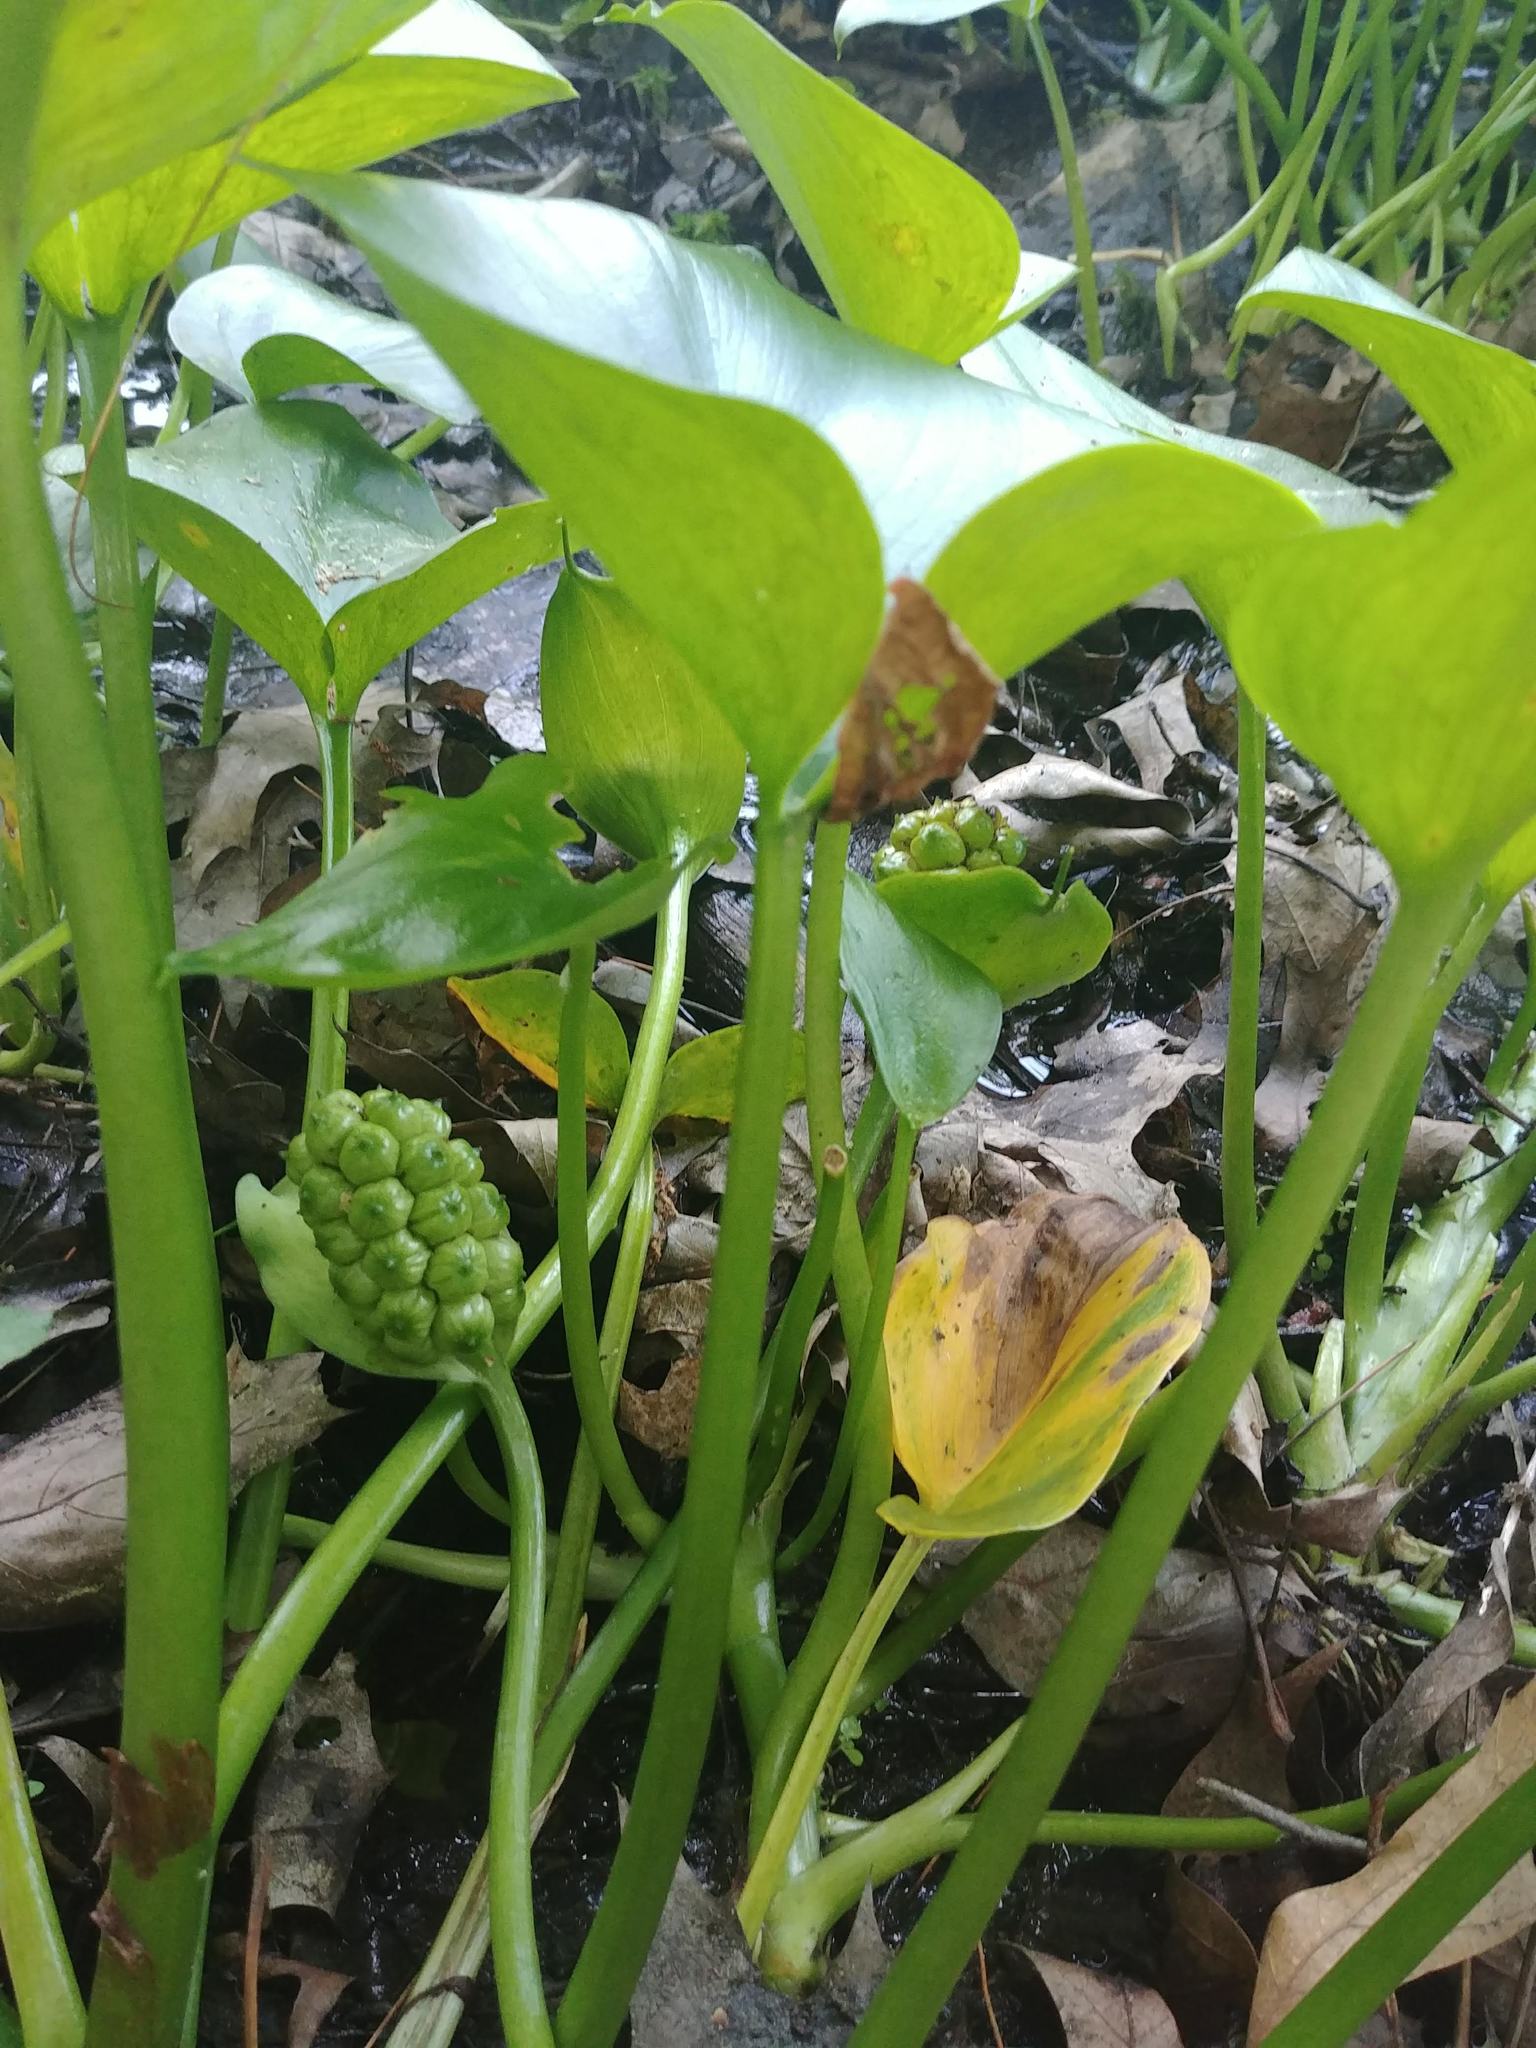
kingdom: Plantae
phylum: Tracheophyta
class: Liliopsida
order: Alismatales
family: Araceae
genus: Calla
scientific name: Calla palustris
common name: Bog arum
